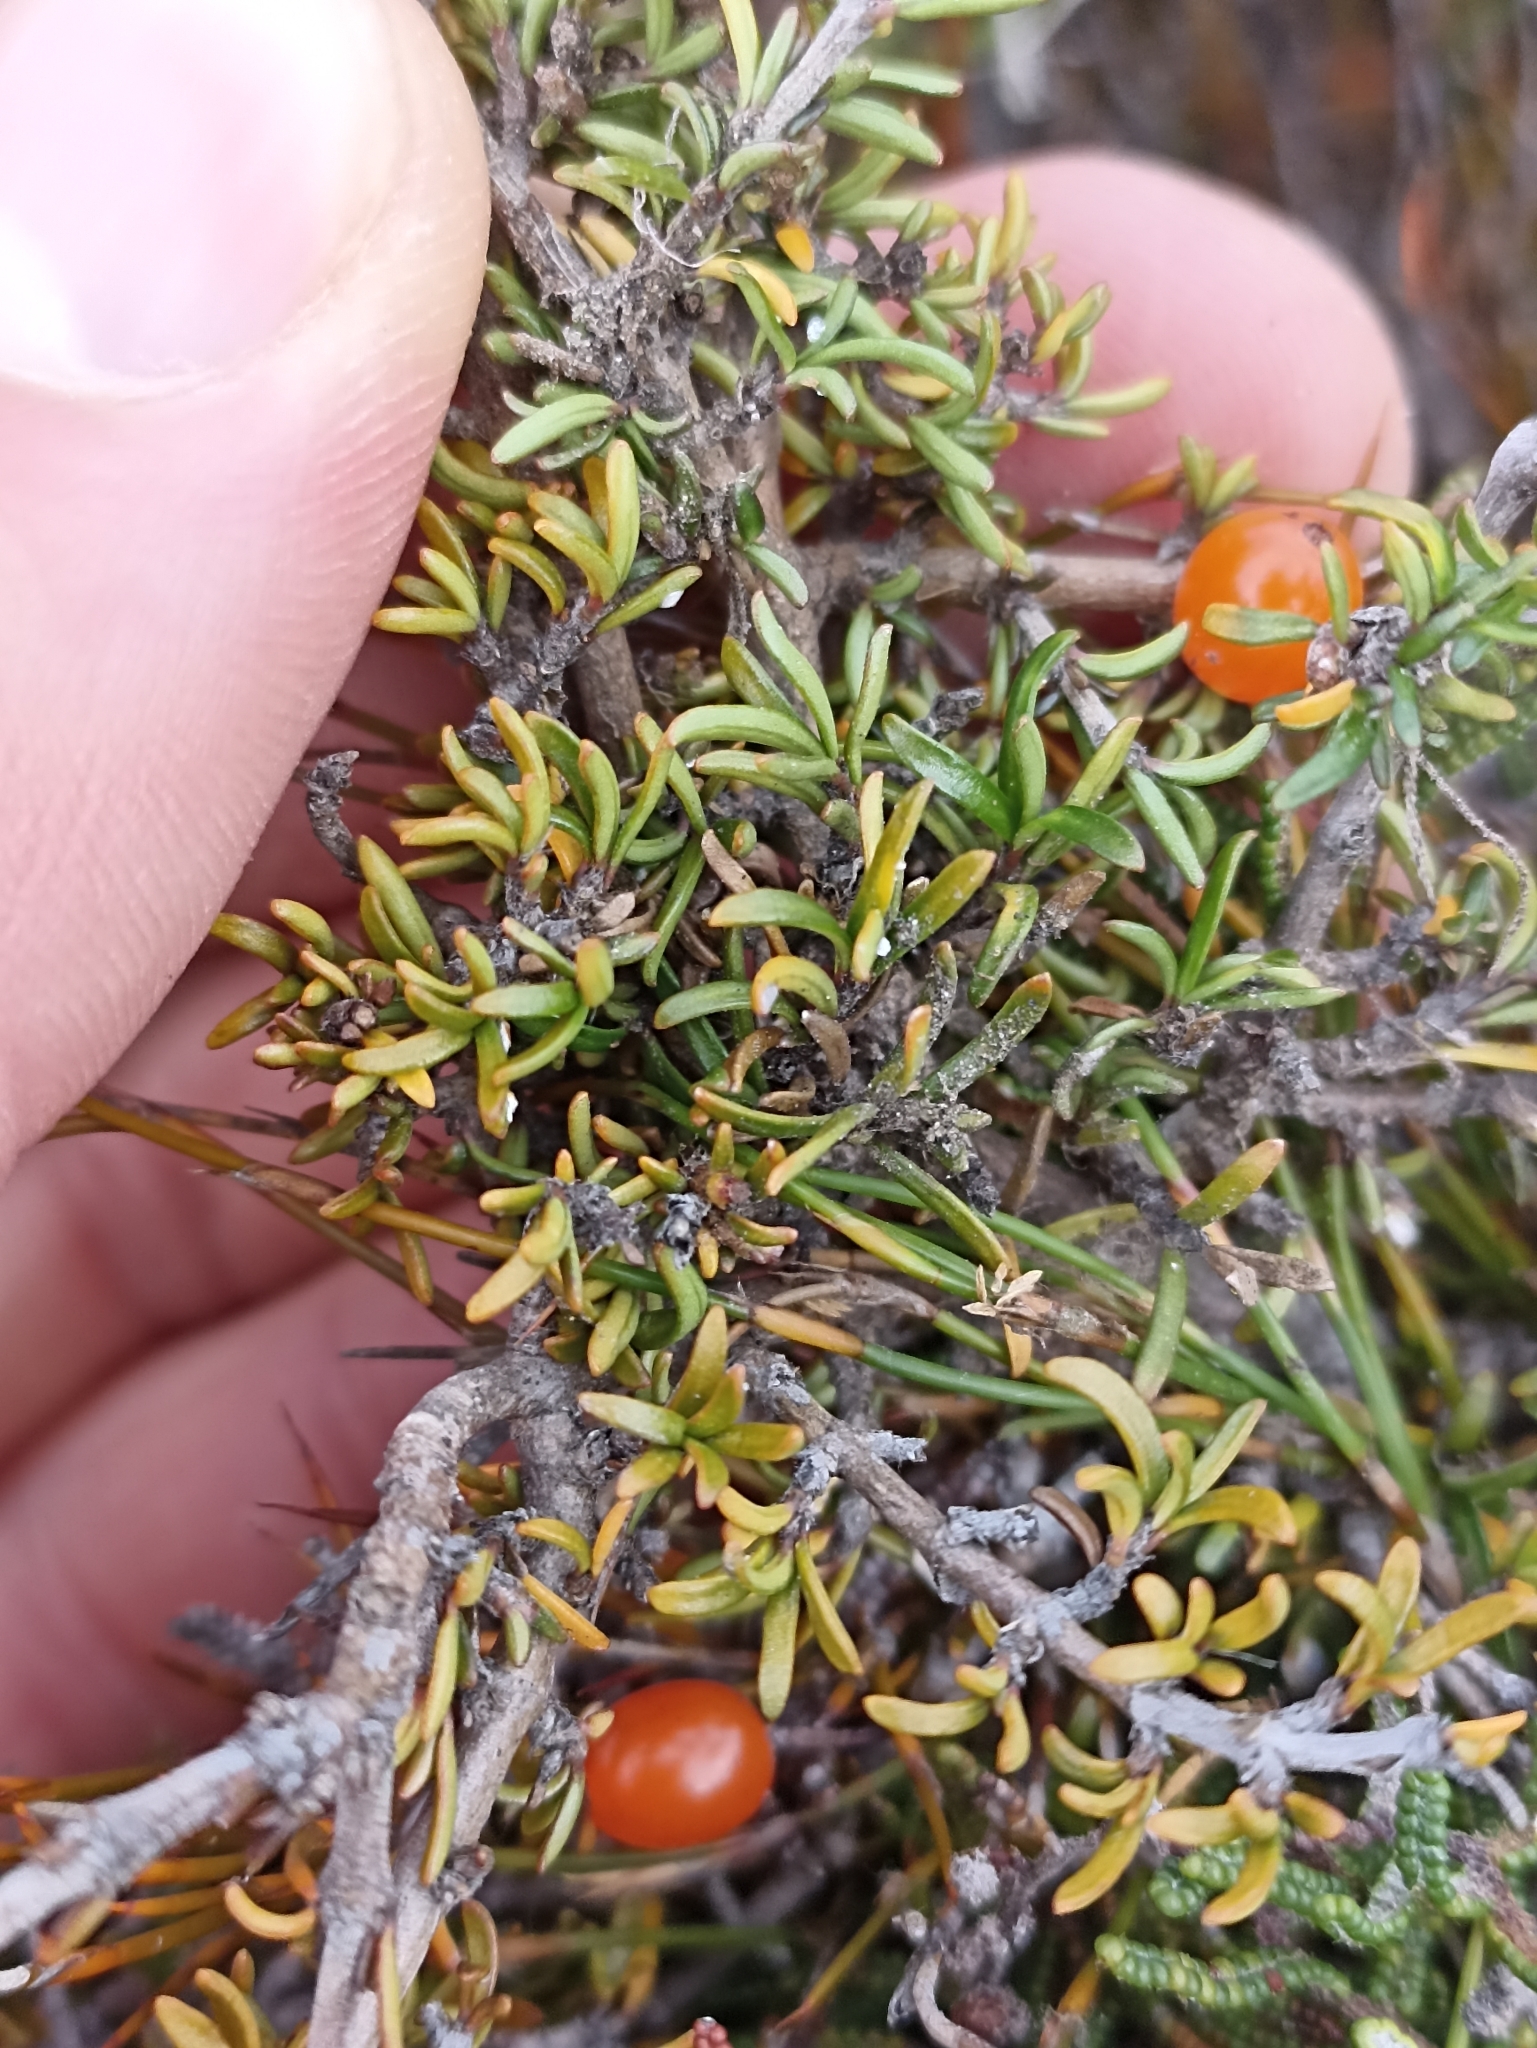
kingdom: Plantae
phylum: Tracheophyta
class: Magnoliopsida
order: Gentianales
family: Rubiaceae
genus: Coprosma
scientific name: Coprosma cheesemanii
